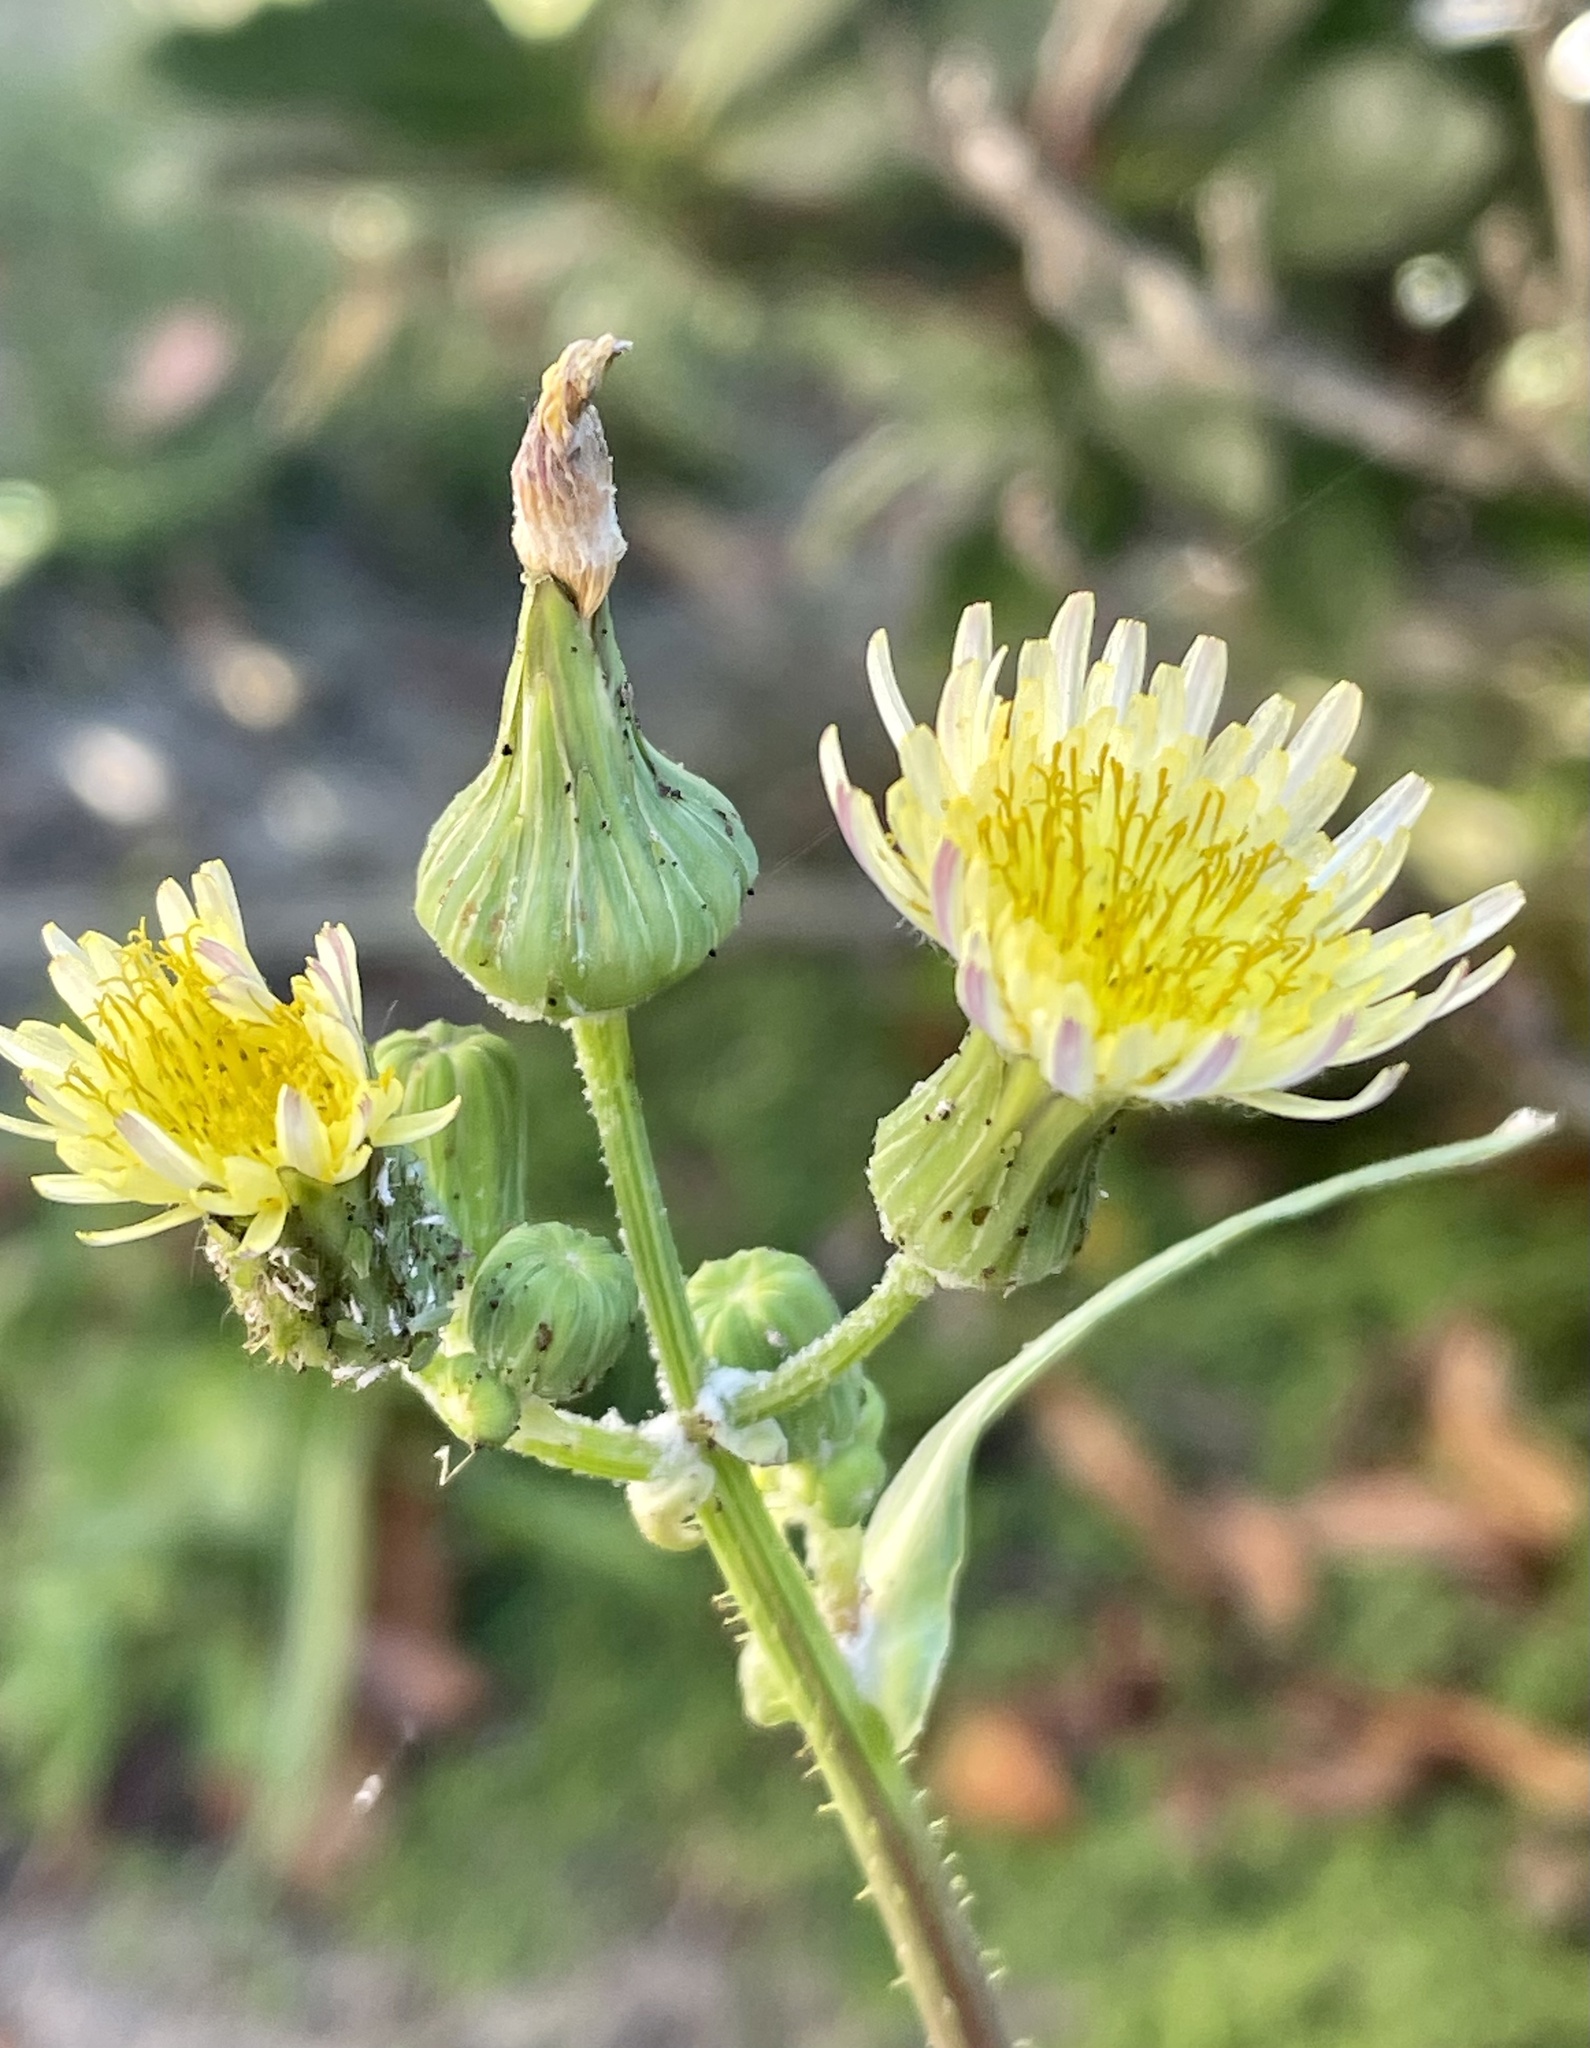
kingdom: Plantae
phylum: Tracheophyta
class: Magnoliopsida
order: Asterales
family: Asteraceae
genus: Sonchus
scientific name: Sonchus oleraceus
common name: Common sowthistle
